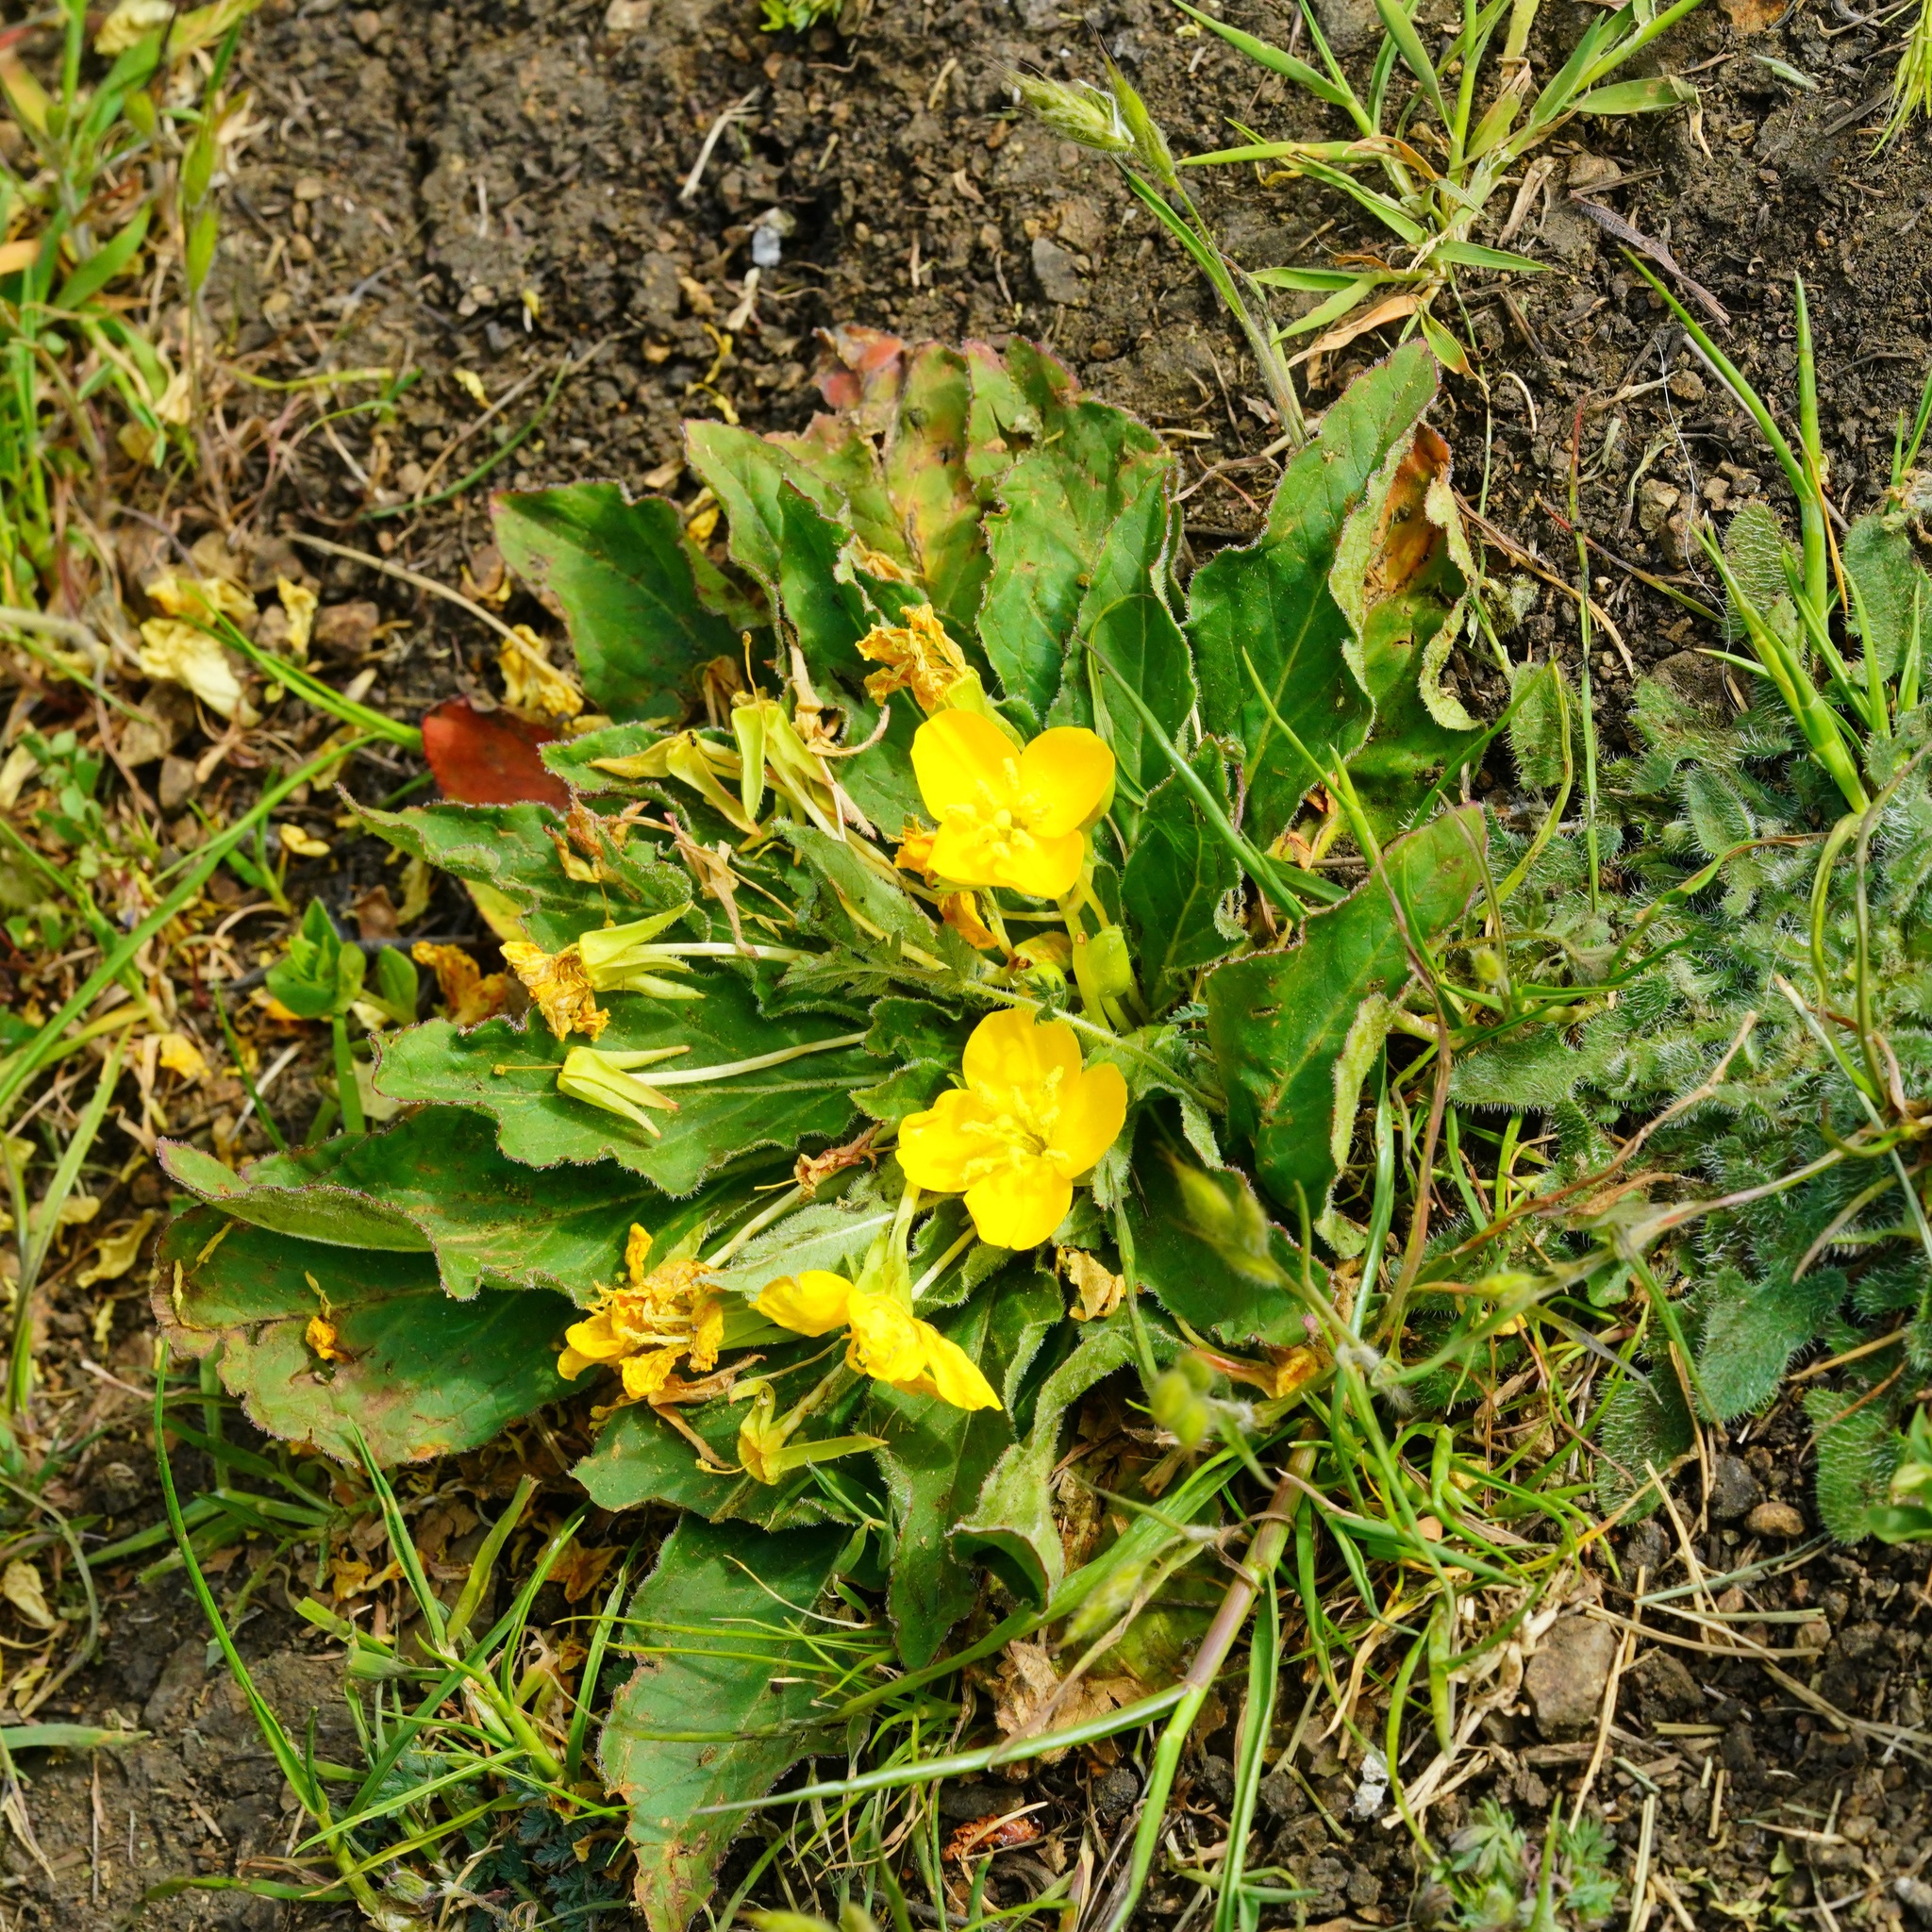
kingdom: Plantae
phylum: Tracheophyta
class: Magnoliopsida
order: Myrtales
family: Onagraceae
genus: Taraxia
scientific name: Taraxia ovata
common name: Goldeneggs
